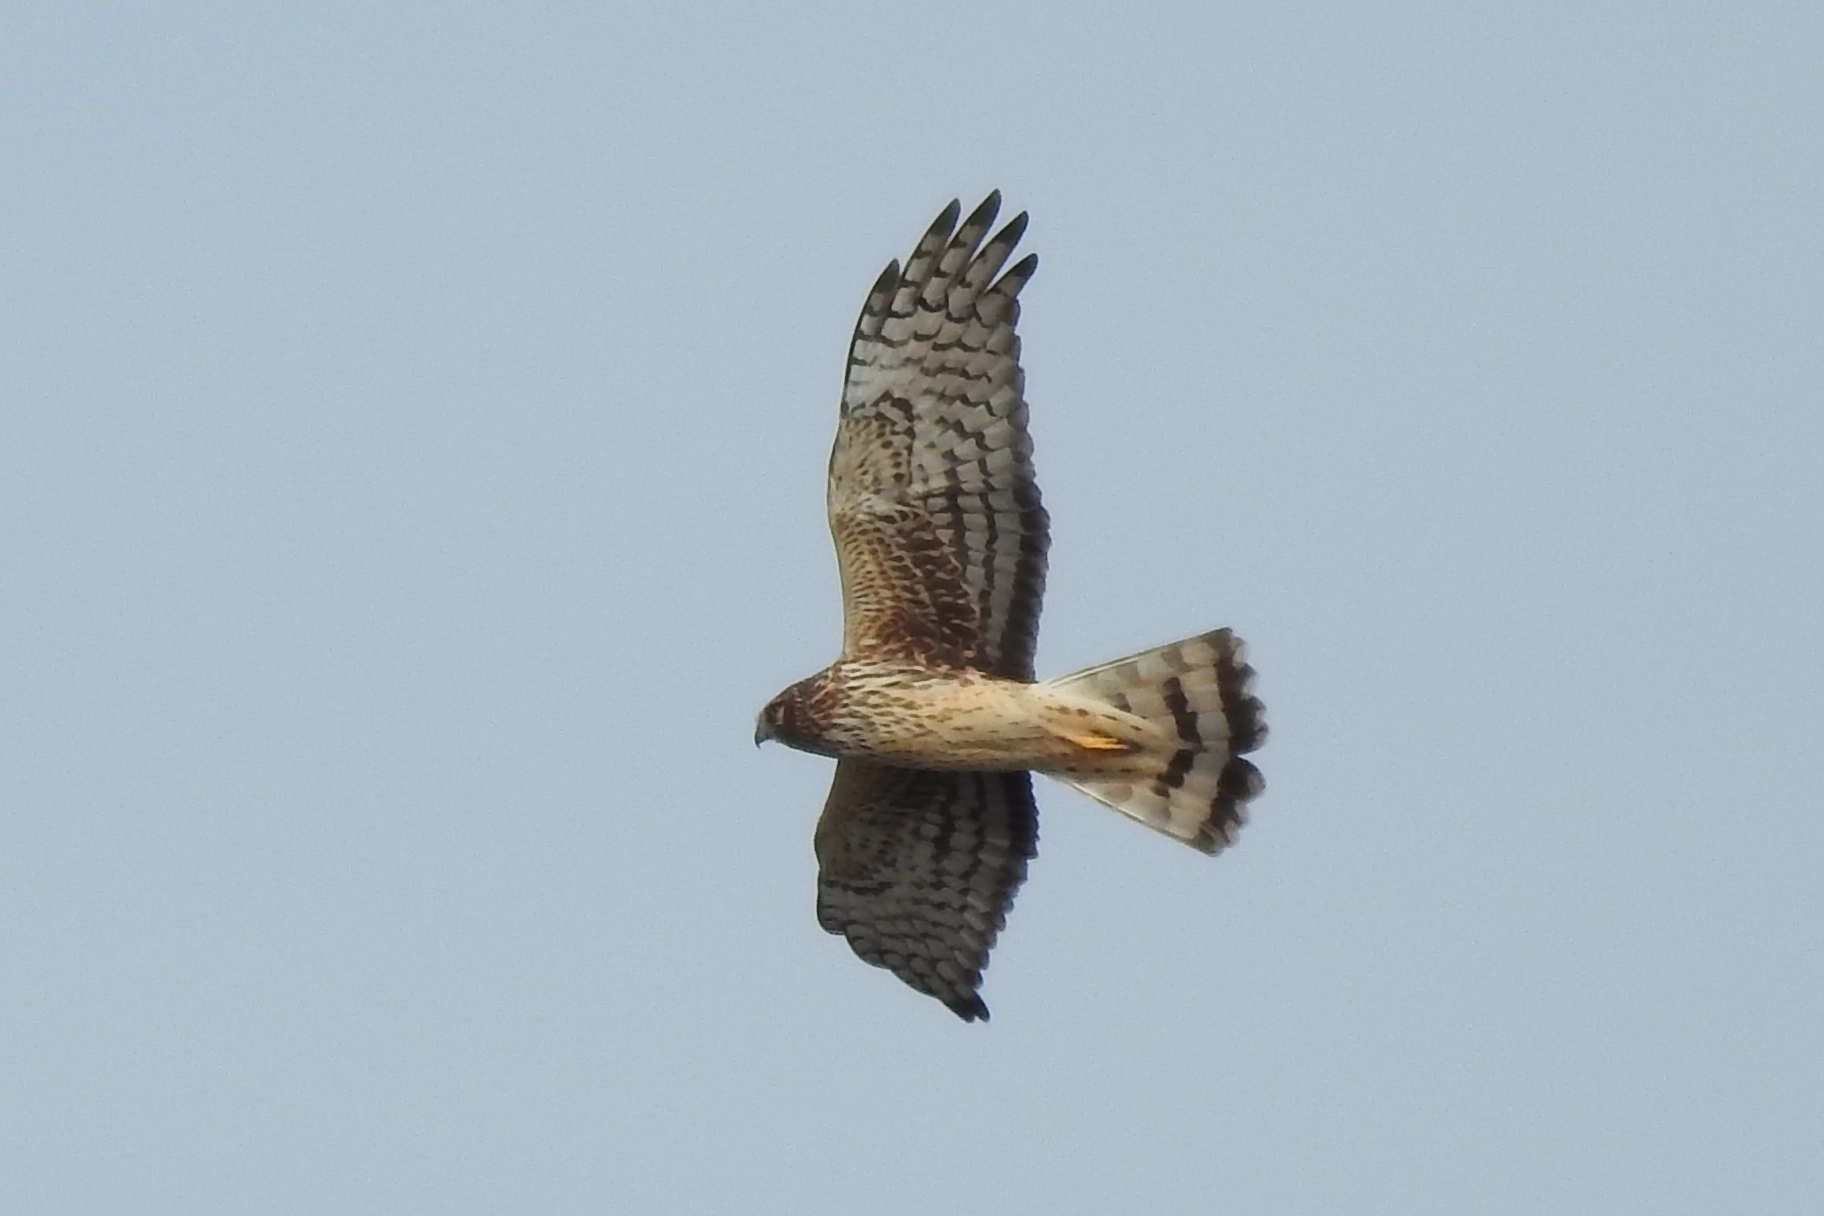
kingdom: Animalia
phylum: Chordata
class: Aves
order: Accipitriformes
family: Accipitridae
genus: Circus
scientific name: Circus cyaneus
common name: Hen harrier
